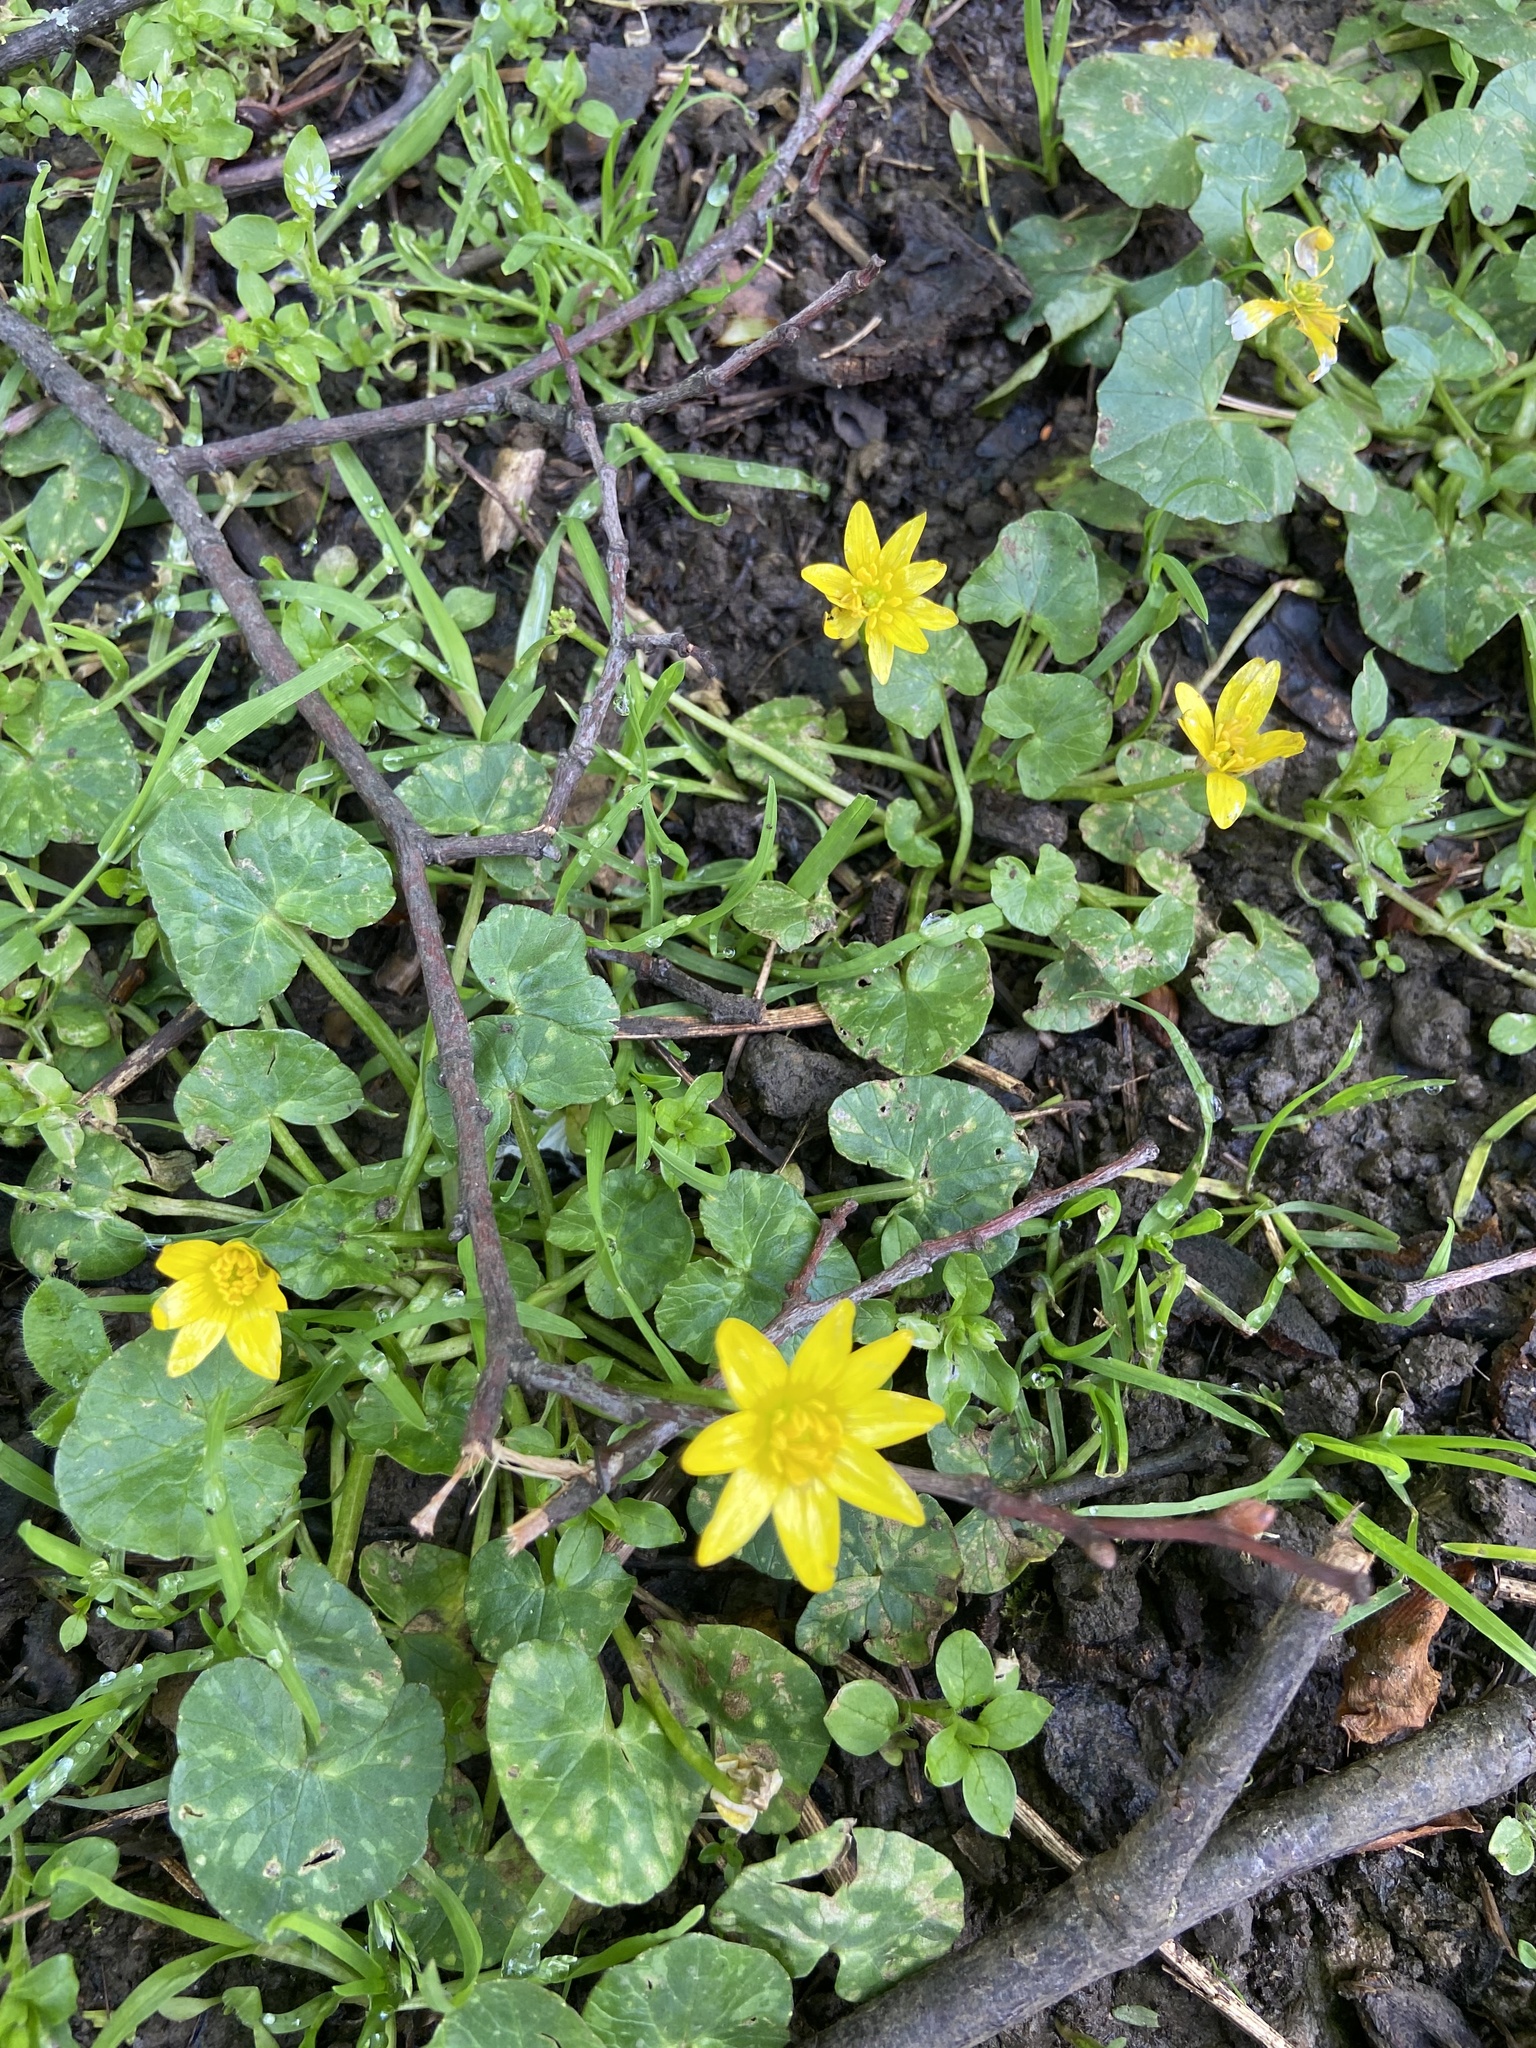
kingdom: Plantae
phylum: Tracheophyta
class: Magnoliopsida
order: Ranunculales
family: Ranunculaceae
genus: Ficaria
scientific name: Ficaria verna
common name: Lesser celandine
